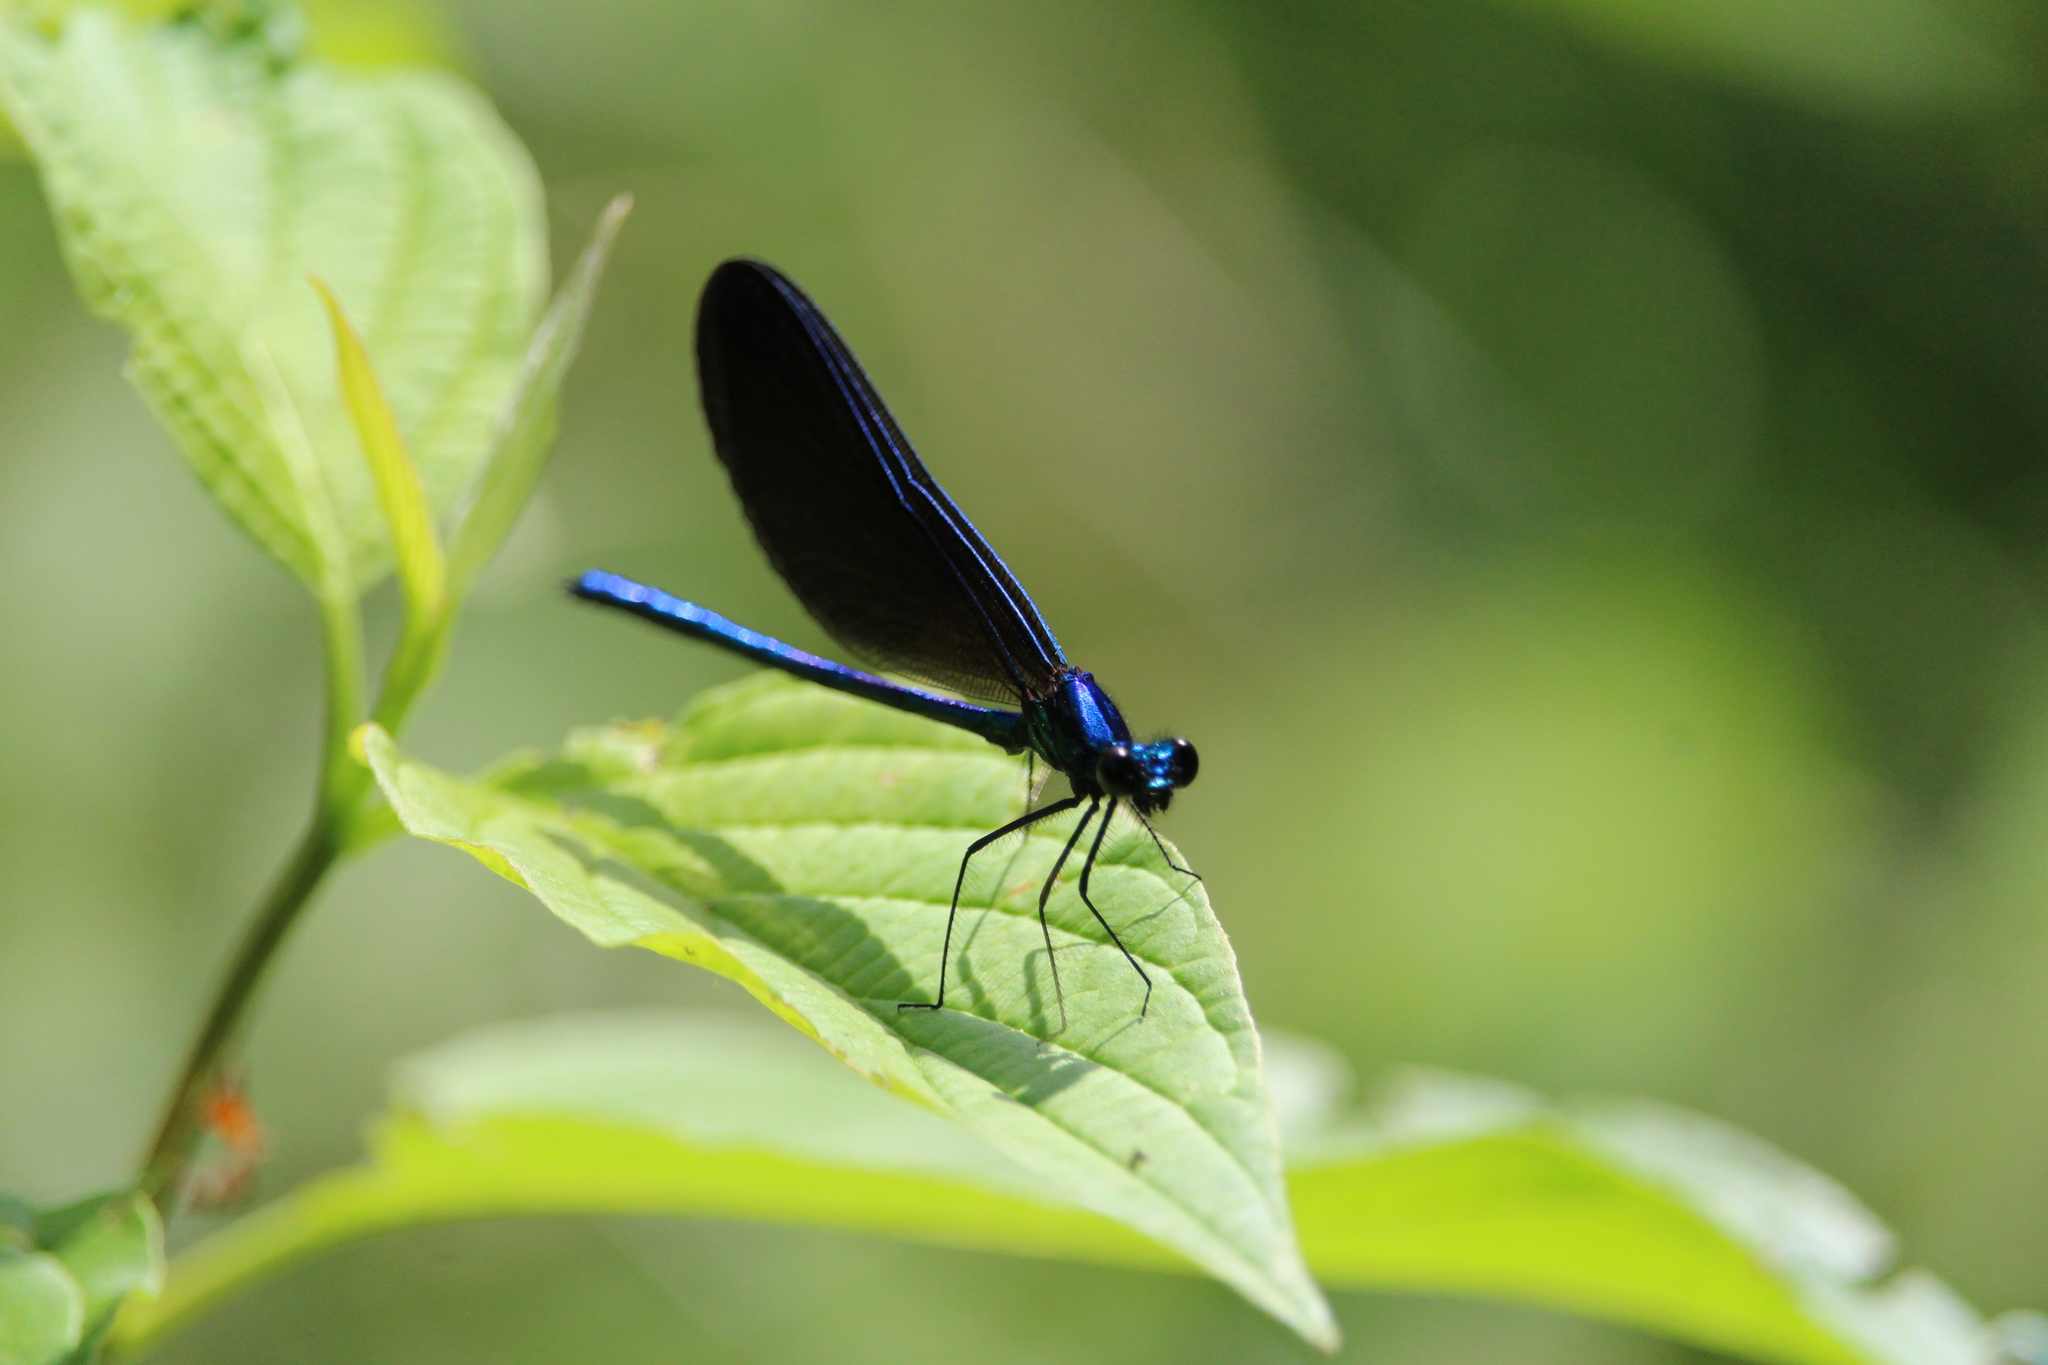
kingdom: Animalia
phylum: Arthropoda
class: Insecta
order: Odonata
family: Calopterygidae
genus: Calopteryx
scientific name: Calopteryx maculata
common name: Ebony jewelwing
